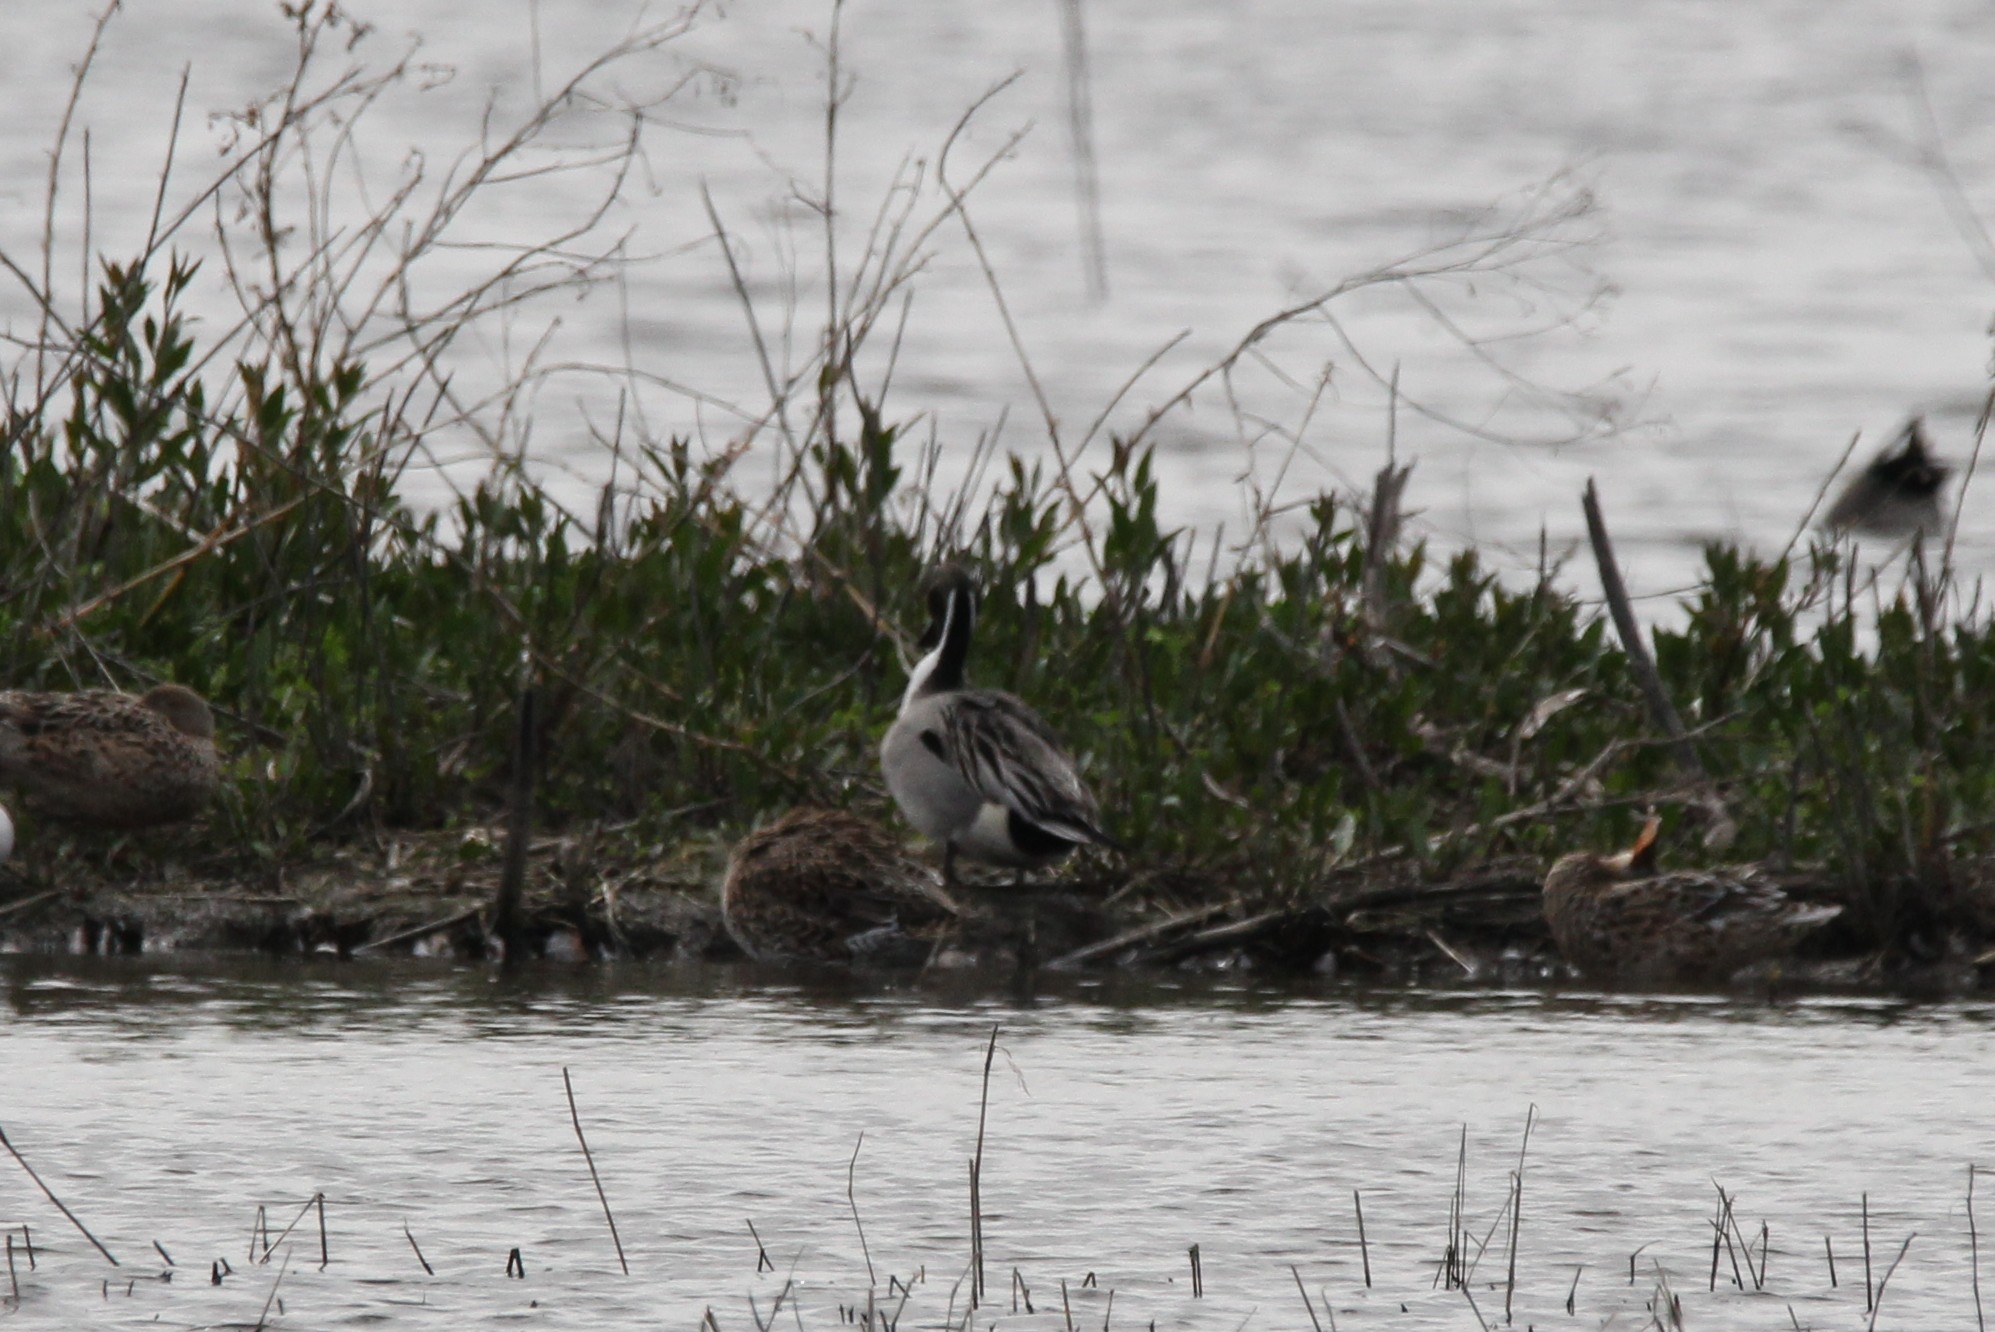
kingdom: Animalia
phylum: Chordata
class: Aves
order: Anseriformes
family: Anatidae
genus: Anas
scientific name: Anas acuta
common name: Northern pintail
